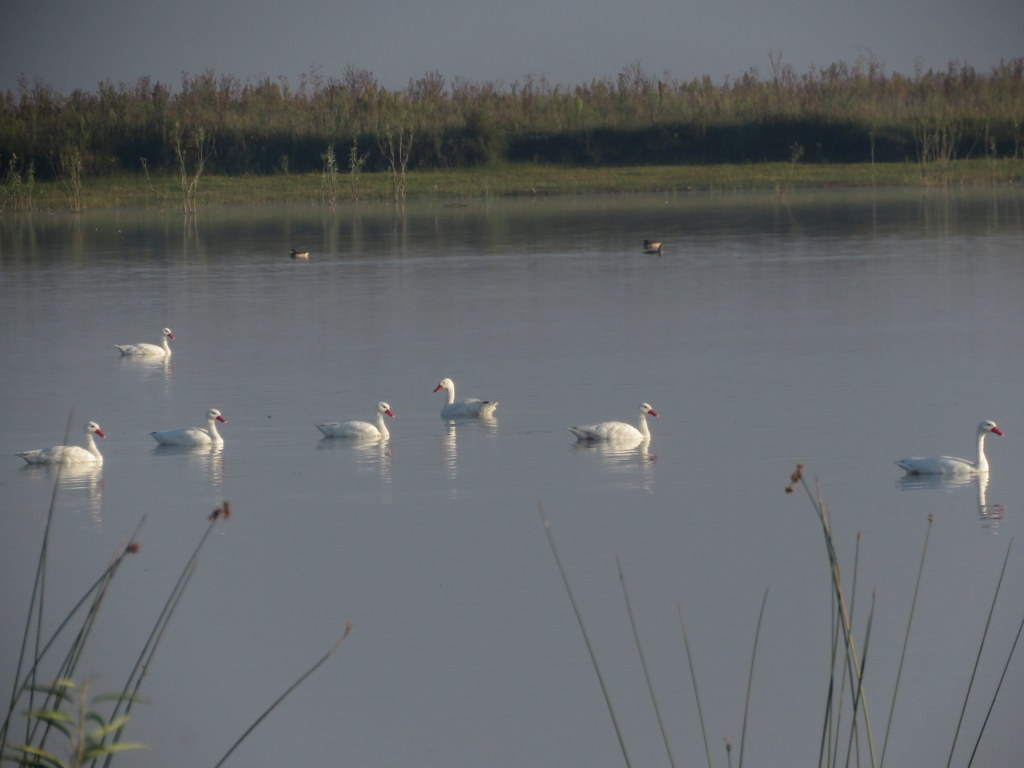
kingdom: Animalia
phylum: Chordata
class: Aves
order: Anseriformes
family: Anatidae
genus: Coscoroba
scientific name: Coscoroba coscoroba
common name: Coscoroba swan
